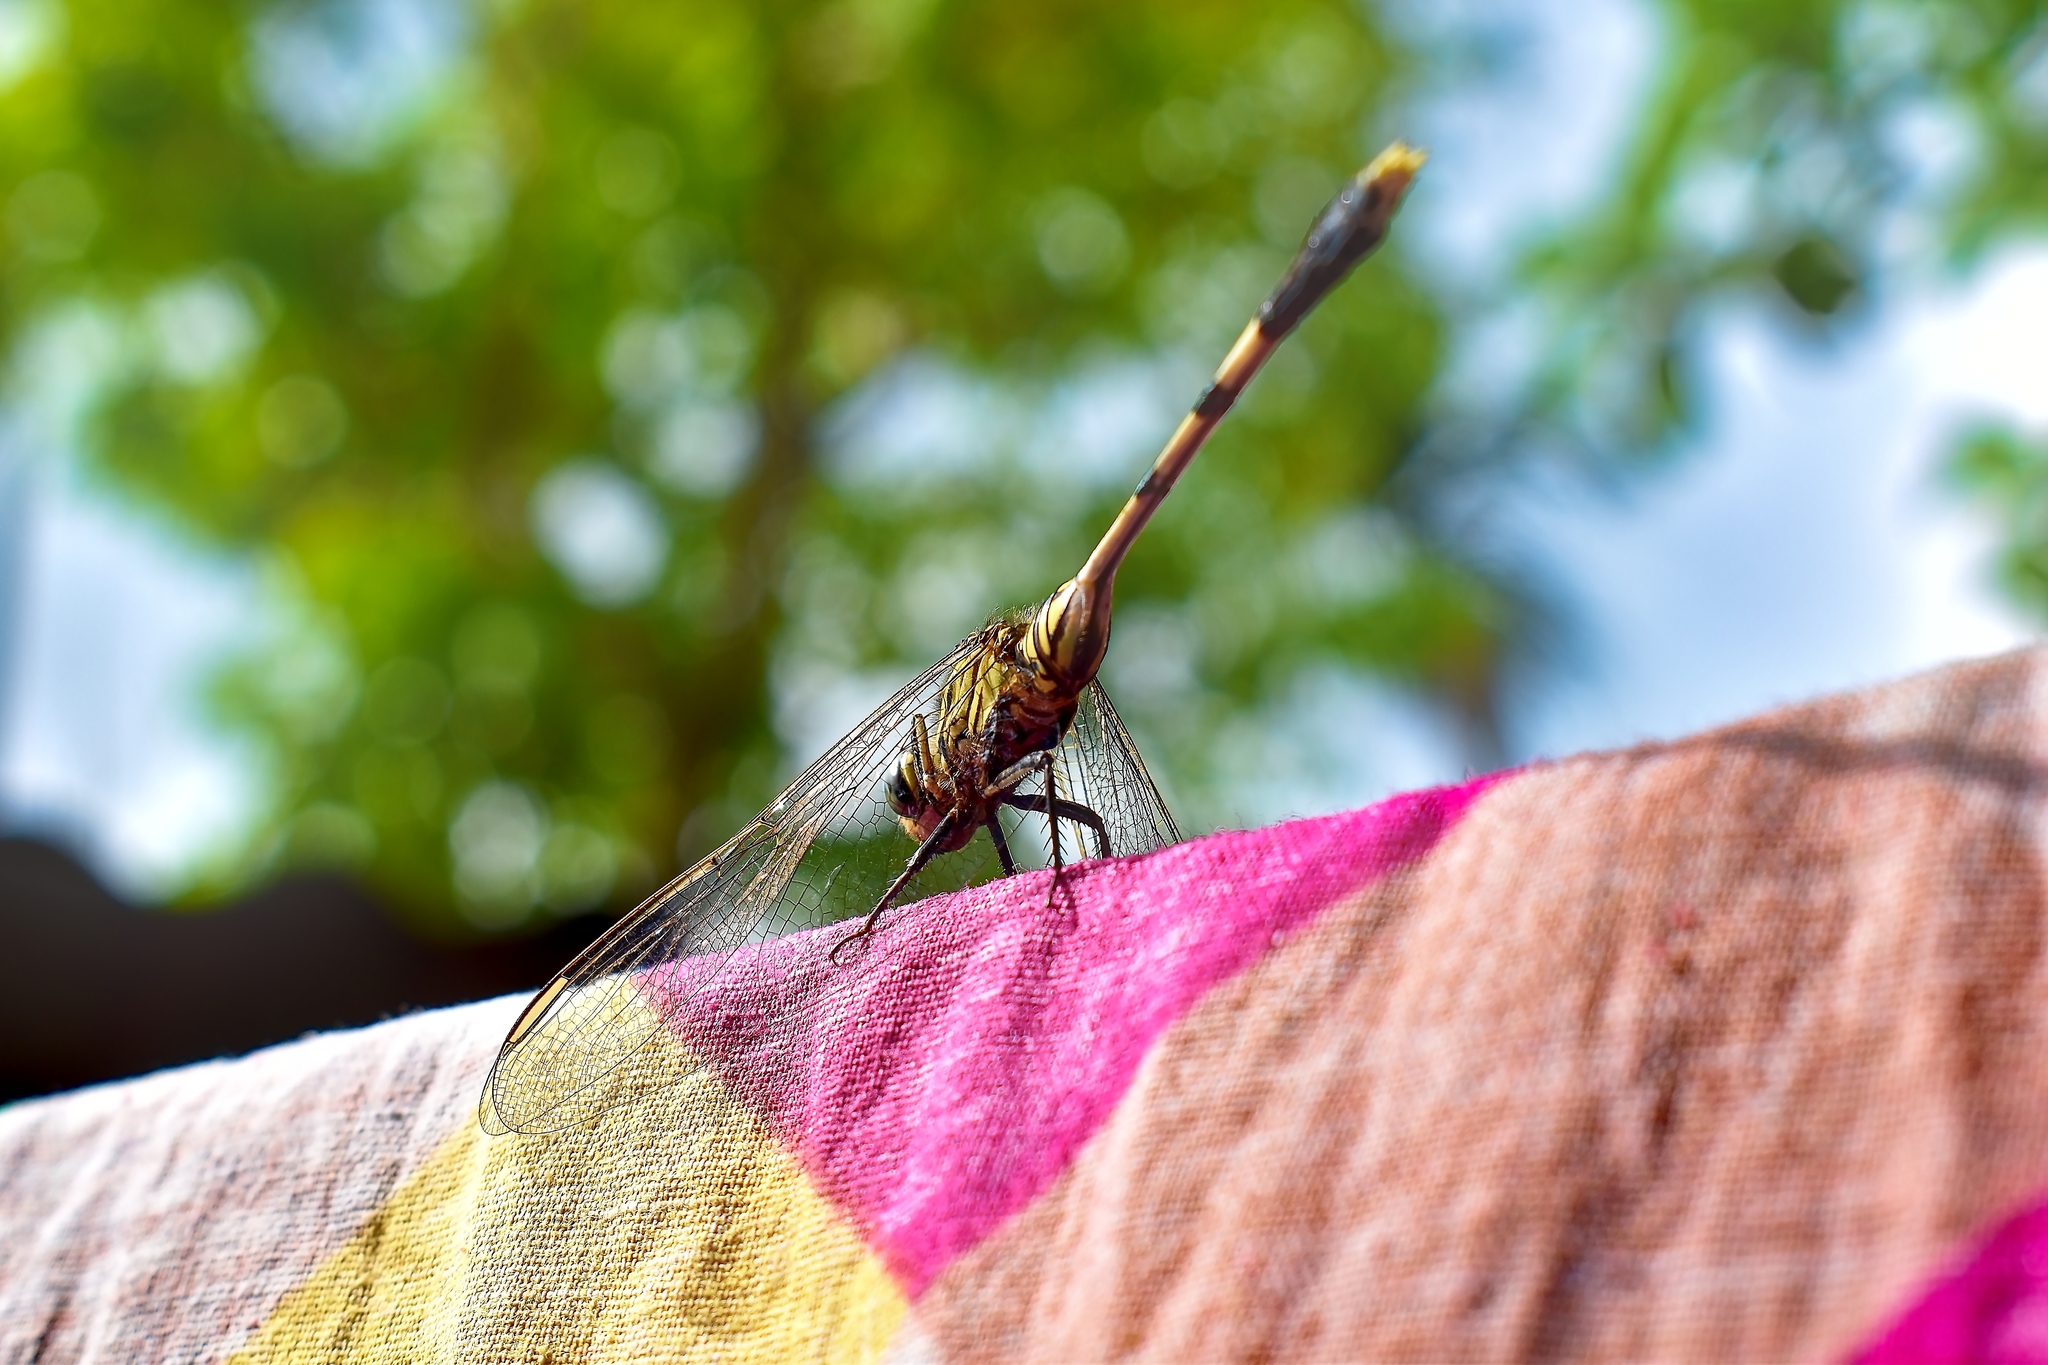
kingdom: Animalia
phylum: Arthropoda
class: Insecta
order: Odonata
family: Libellulidae
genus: Orthetrum
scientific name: Orthetrum sabina
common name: Slender skimmer
